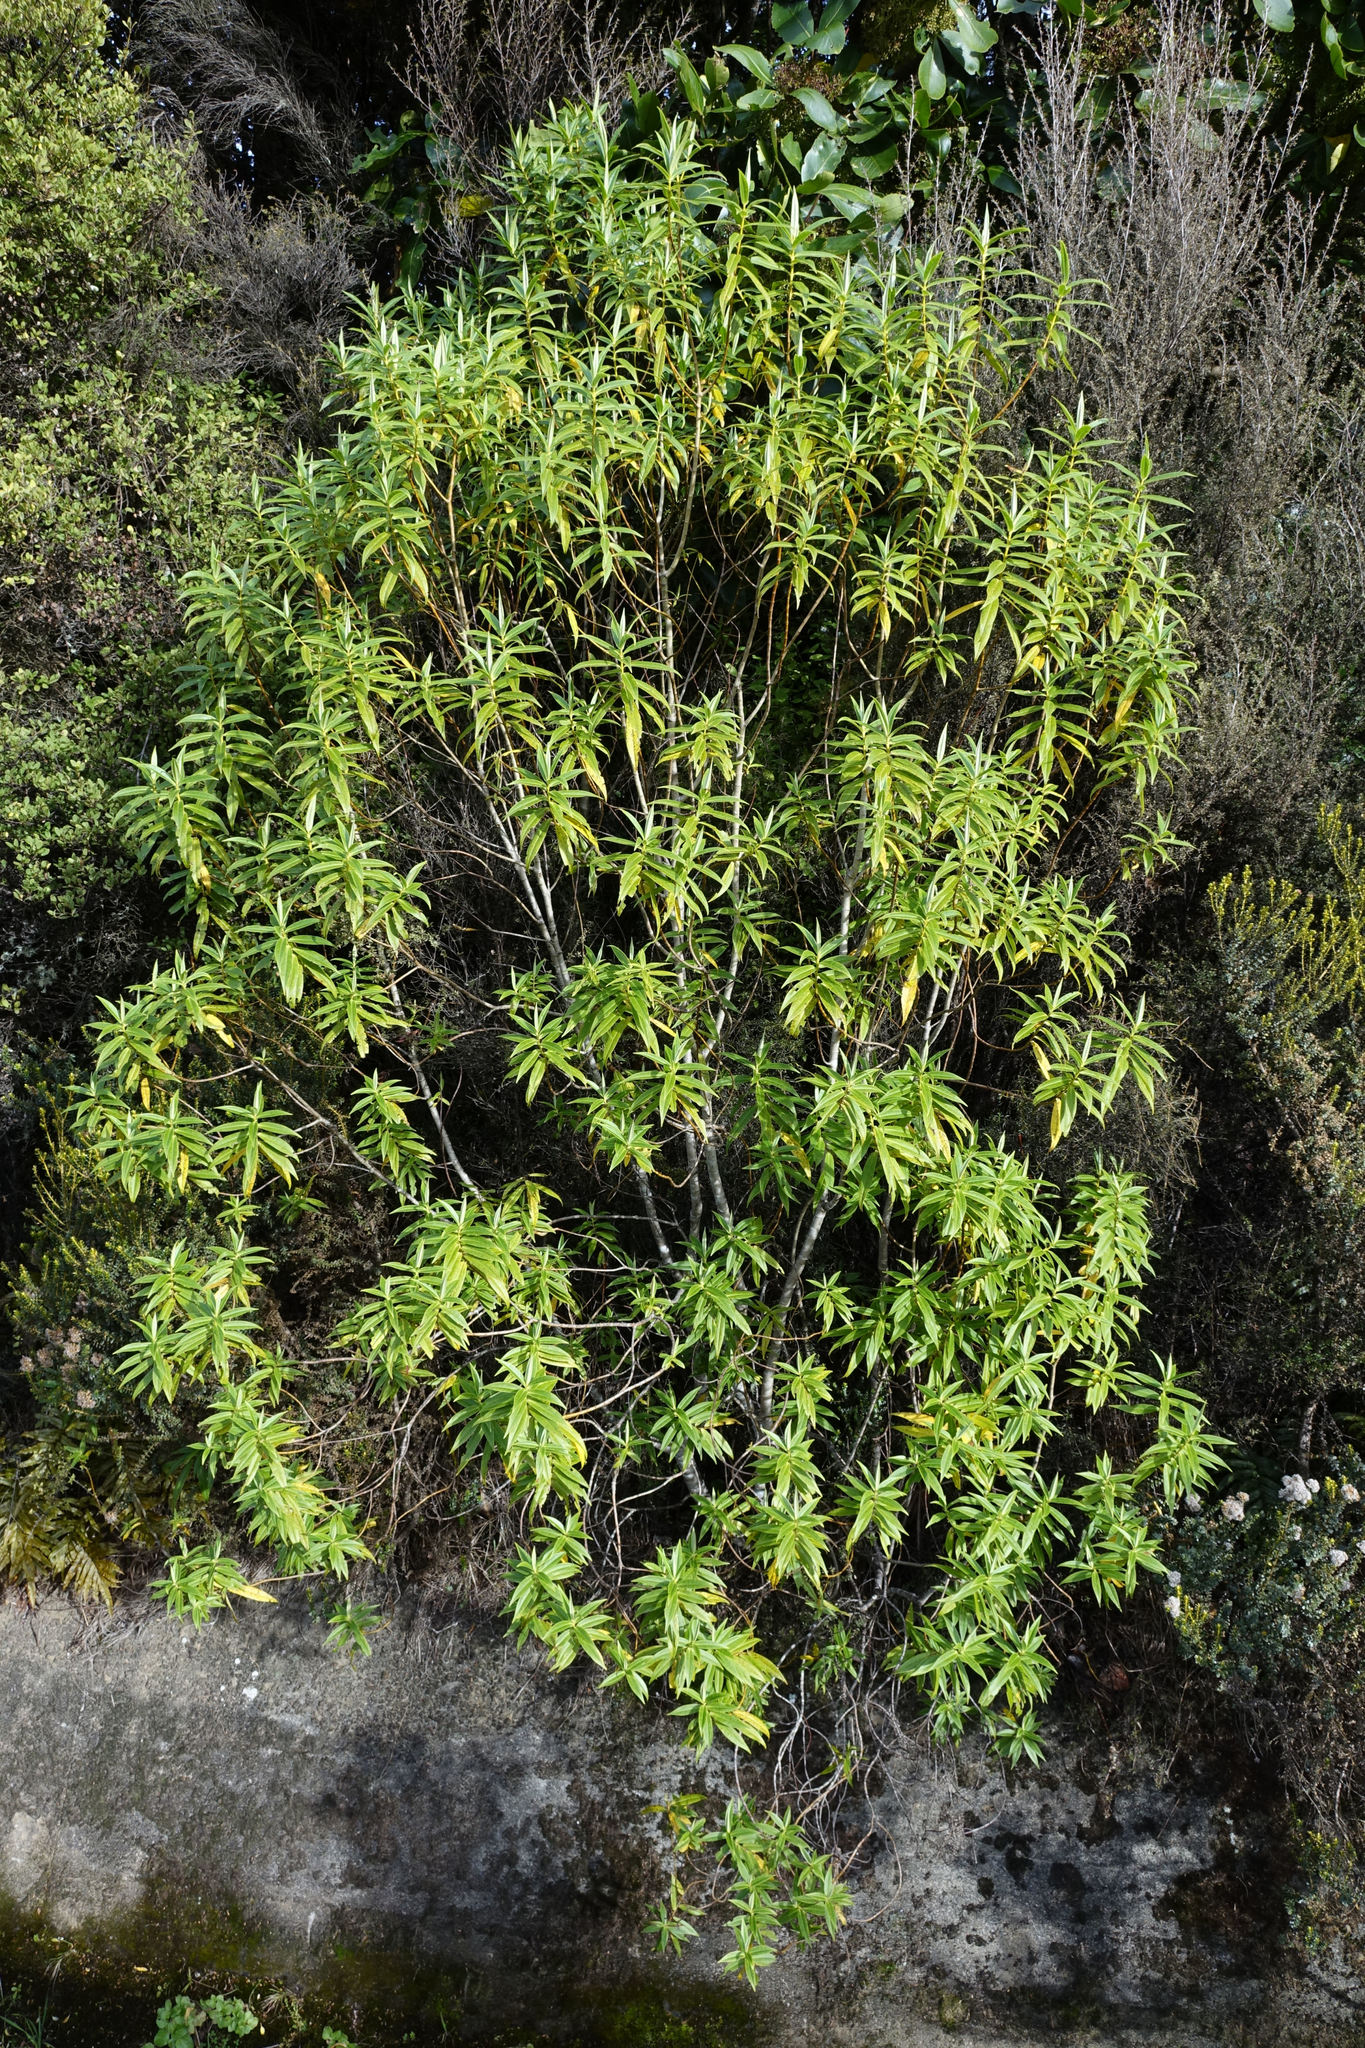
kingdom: Plantae
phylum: Tracheophyta
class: Magnoliopsida
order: Lamiales
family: Plantaginaceae
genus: Veronica
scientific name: Veronica salicifolia
